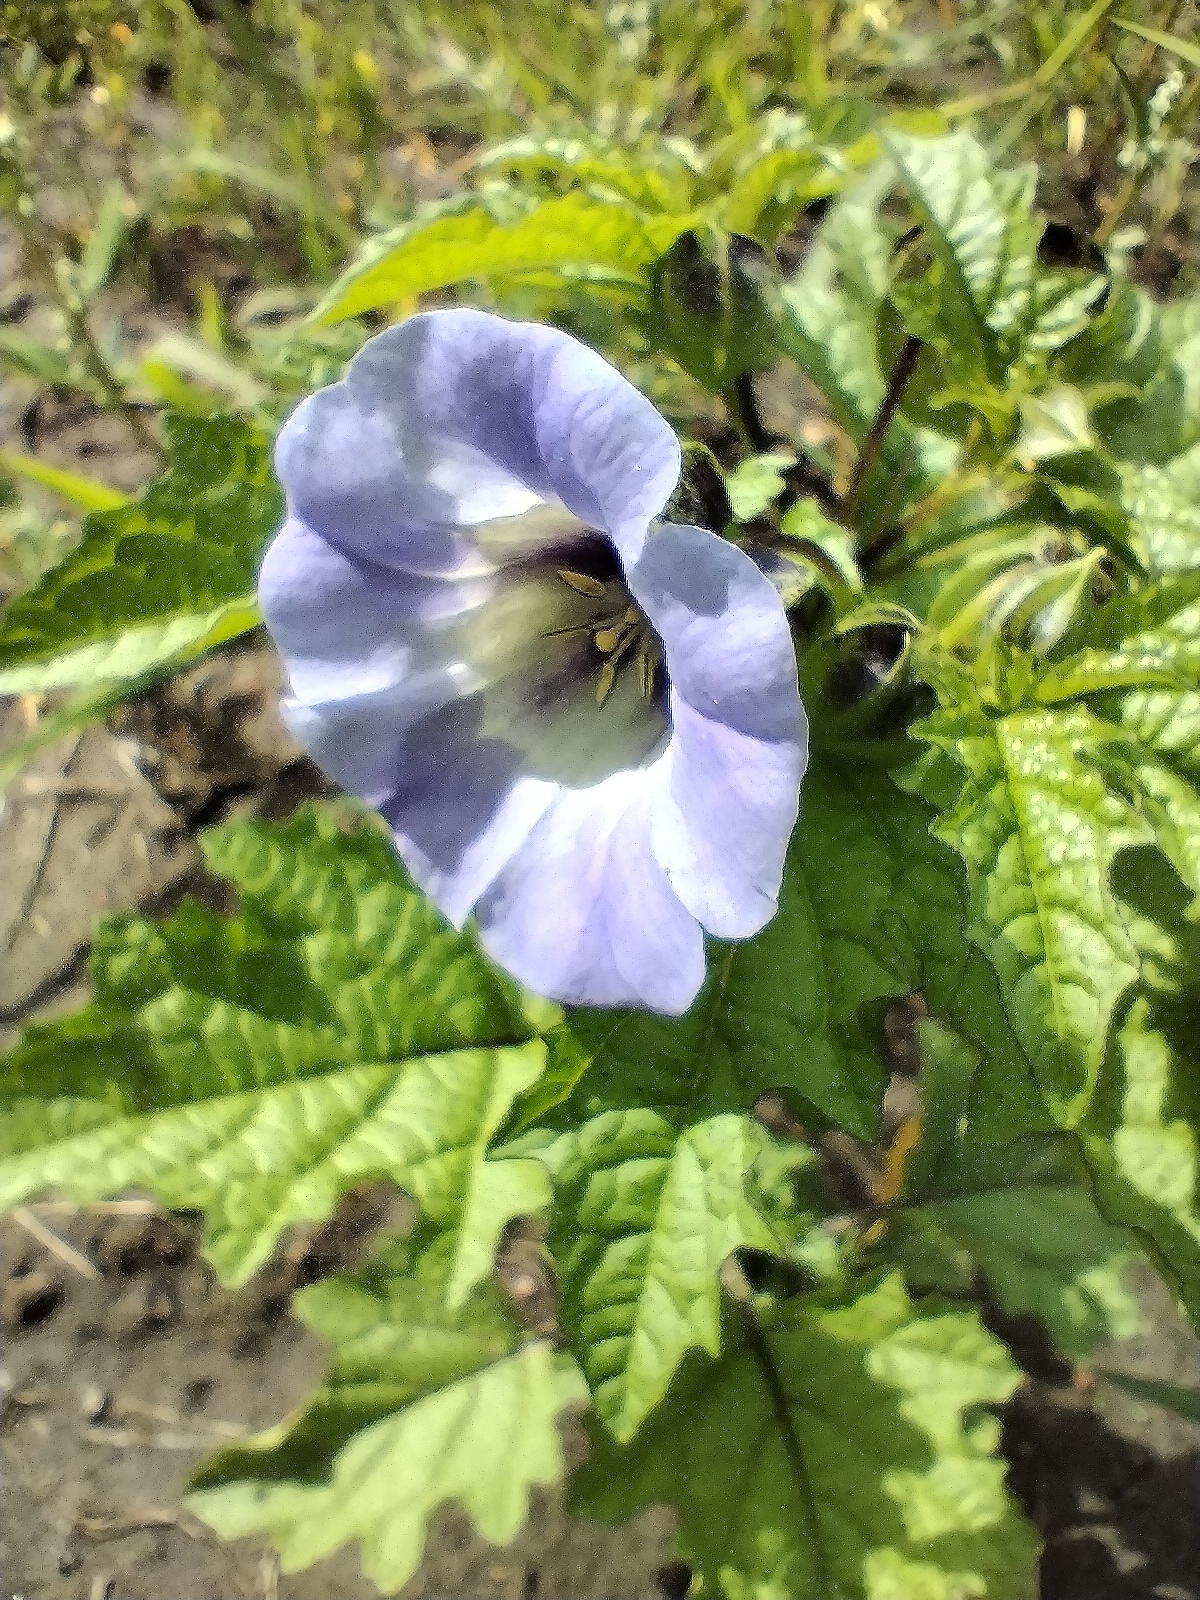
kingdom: Plantae
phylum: Tracheophyta
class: Magnoliopsida
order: Solanales
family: Solanaceae
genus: Nicandra
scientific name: Nicandra physalodes
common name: Apple-of-peru
